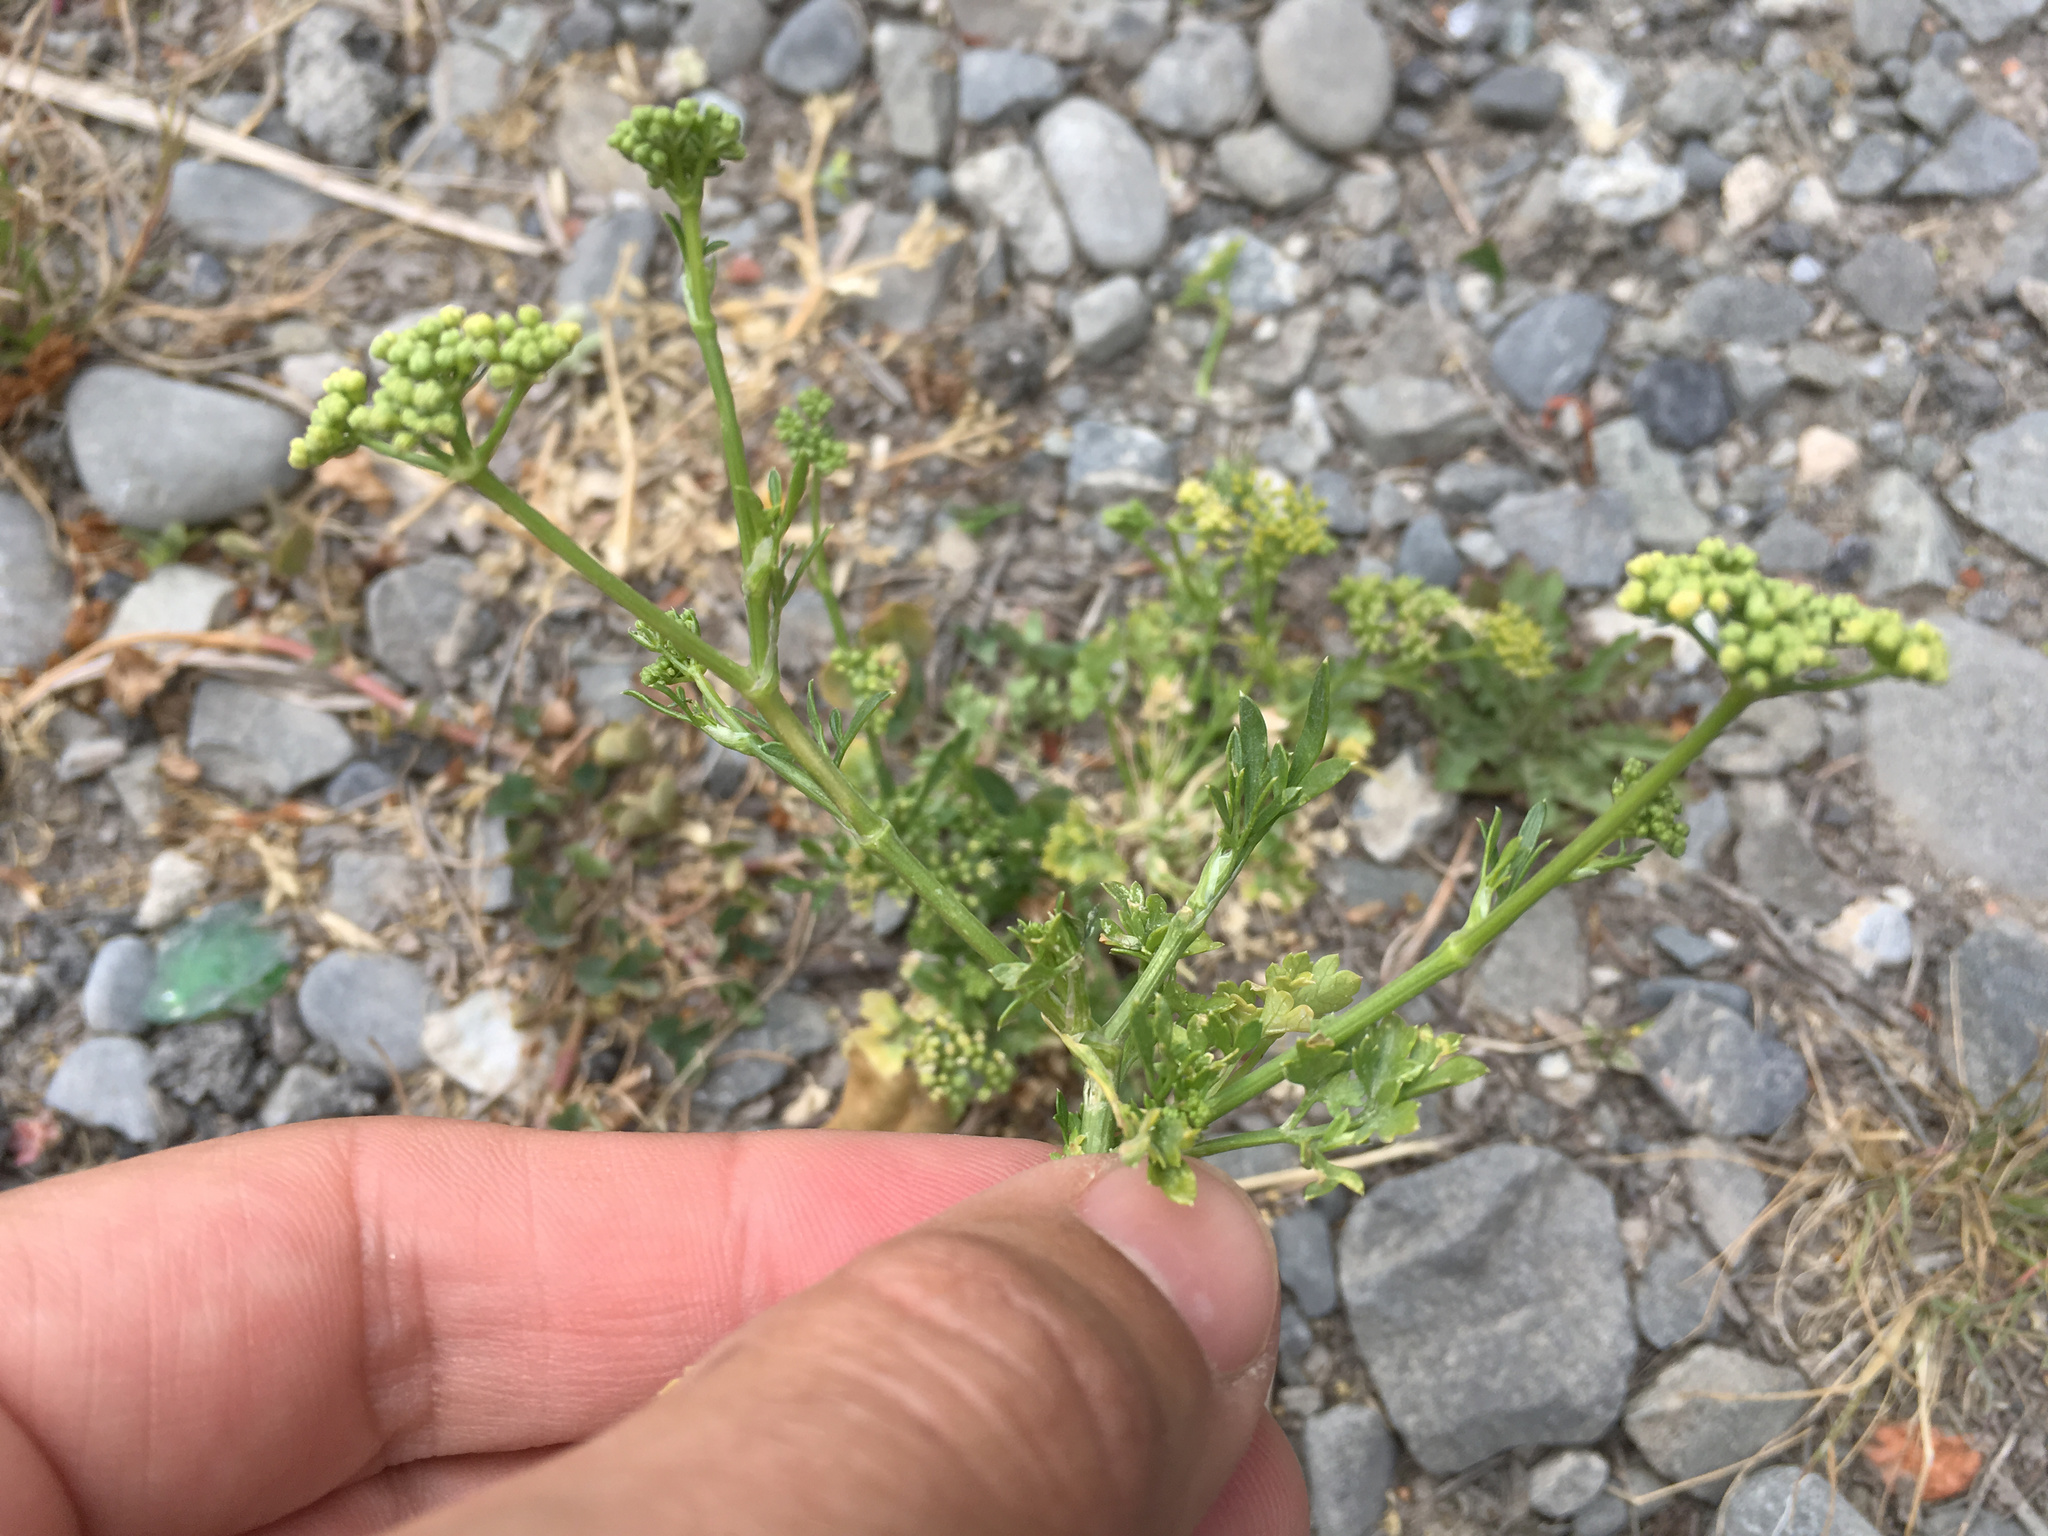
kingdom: Plantae
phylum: Tracheophyta
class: Magnoliopsida
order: Apiales
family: Apiaceae
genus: Petroselinum
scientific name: Petroselinum crispum
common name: Parsley
